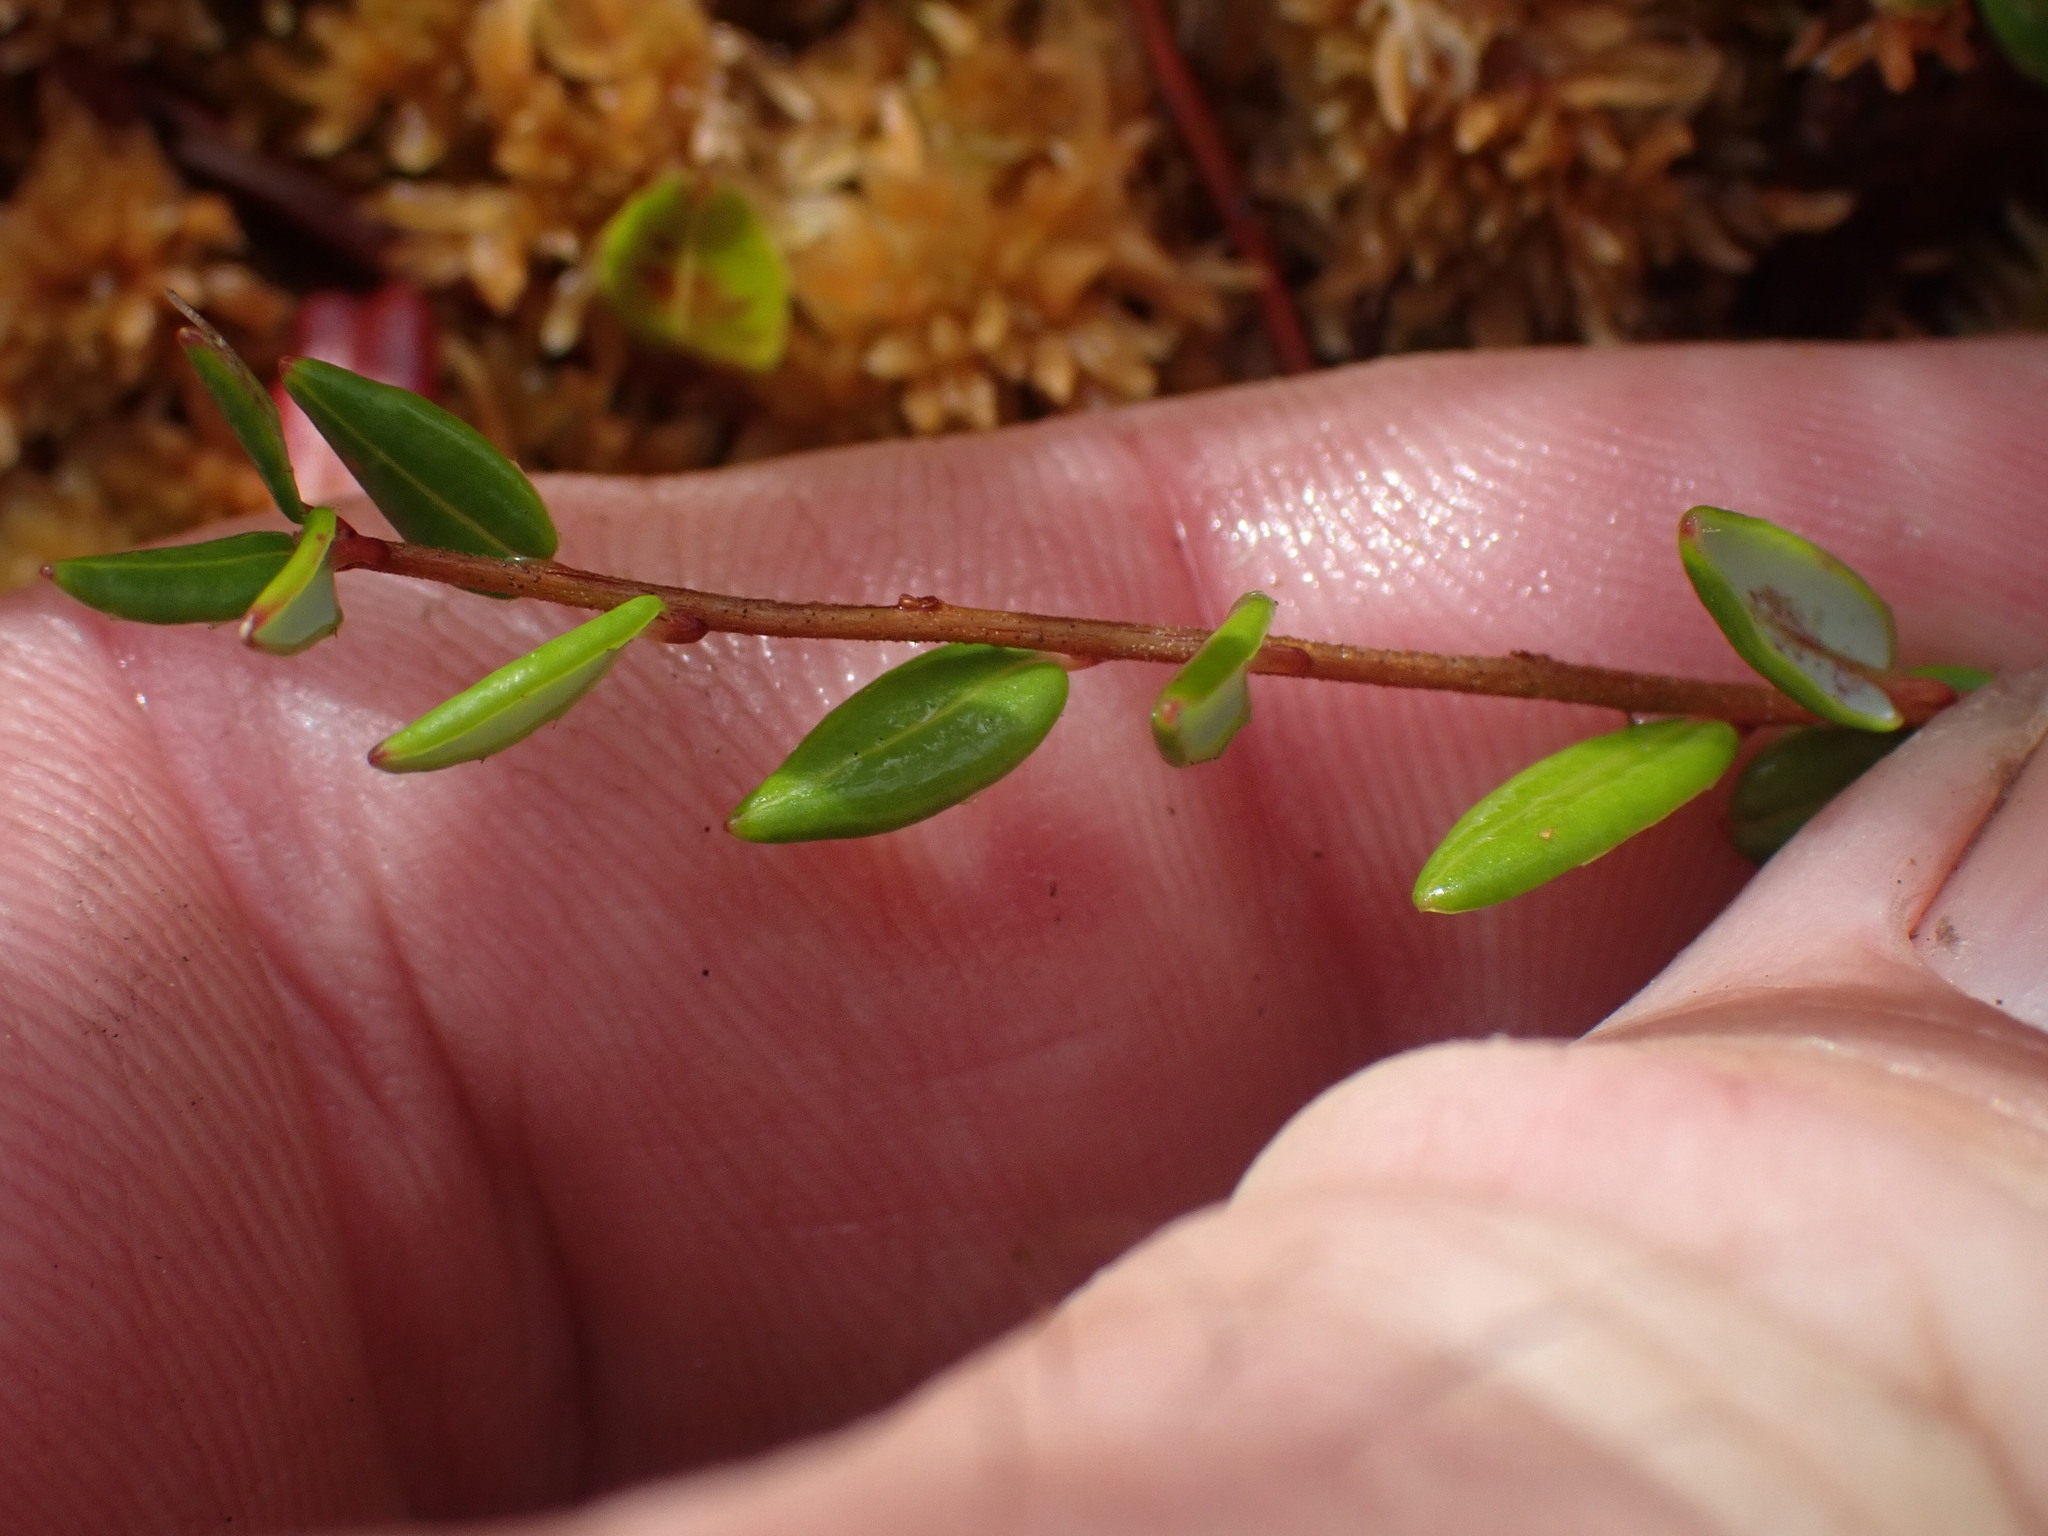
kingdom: Plantae
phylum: Tracheophyta
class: Magnoliopsida
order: Ericales
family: Ericaceae
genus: Vaccinium
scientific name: Vaccinium oxycoccos
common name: Cranberry
